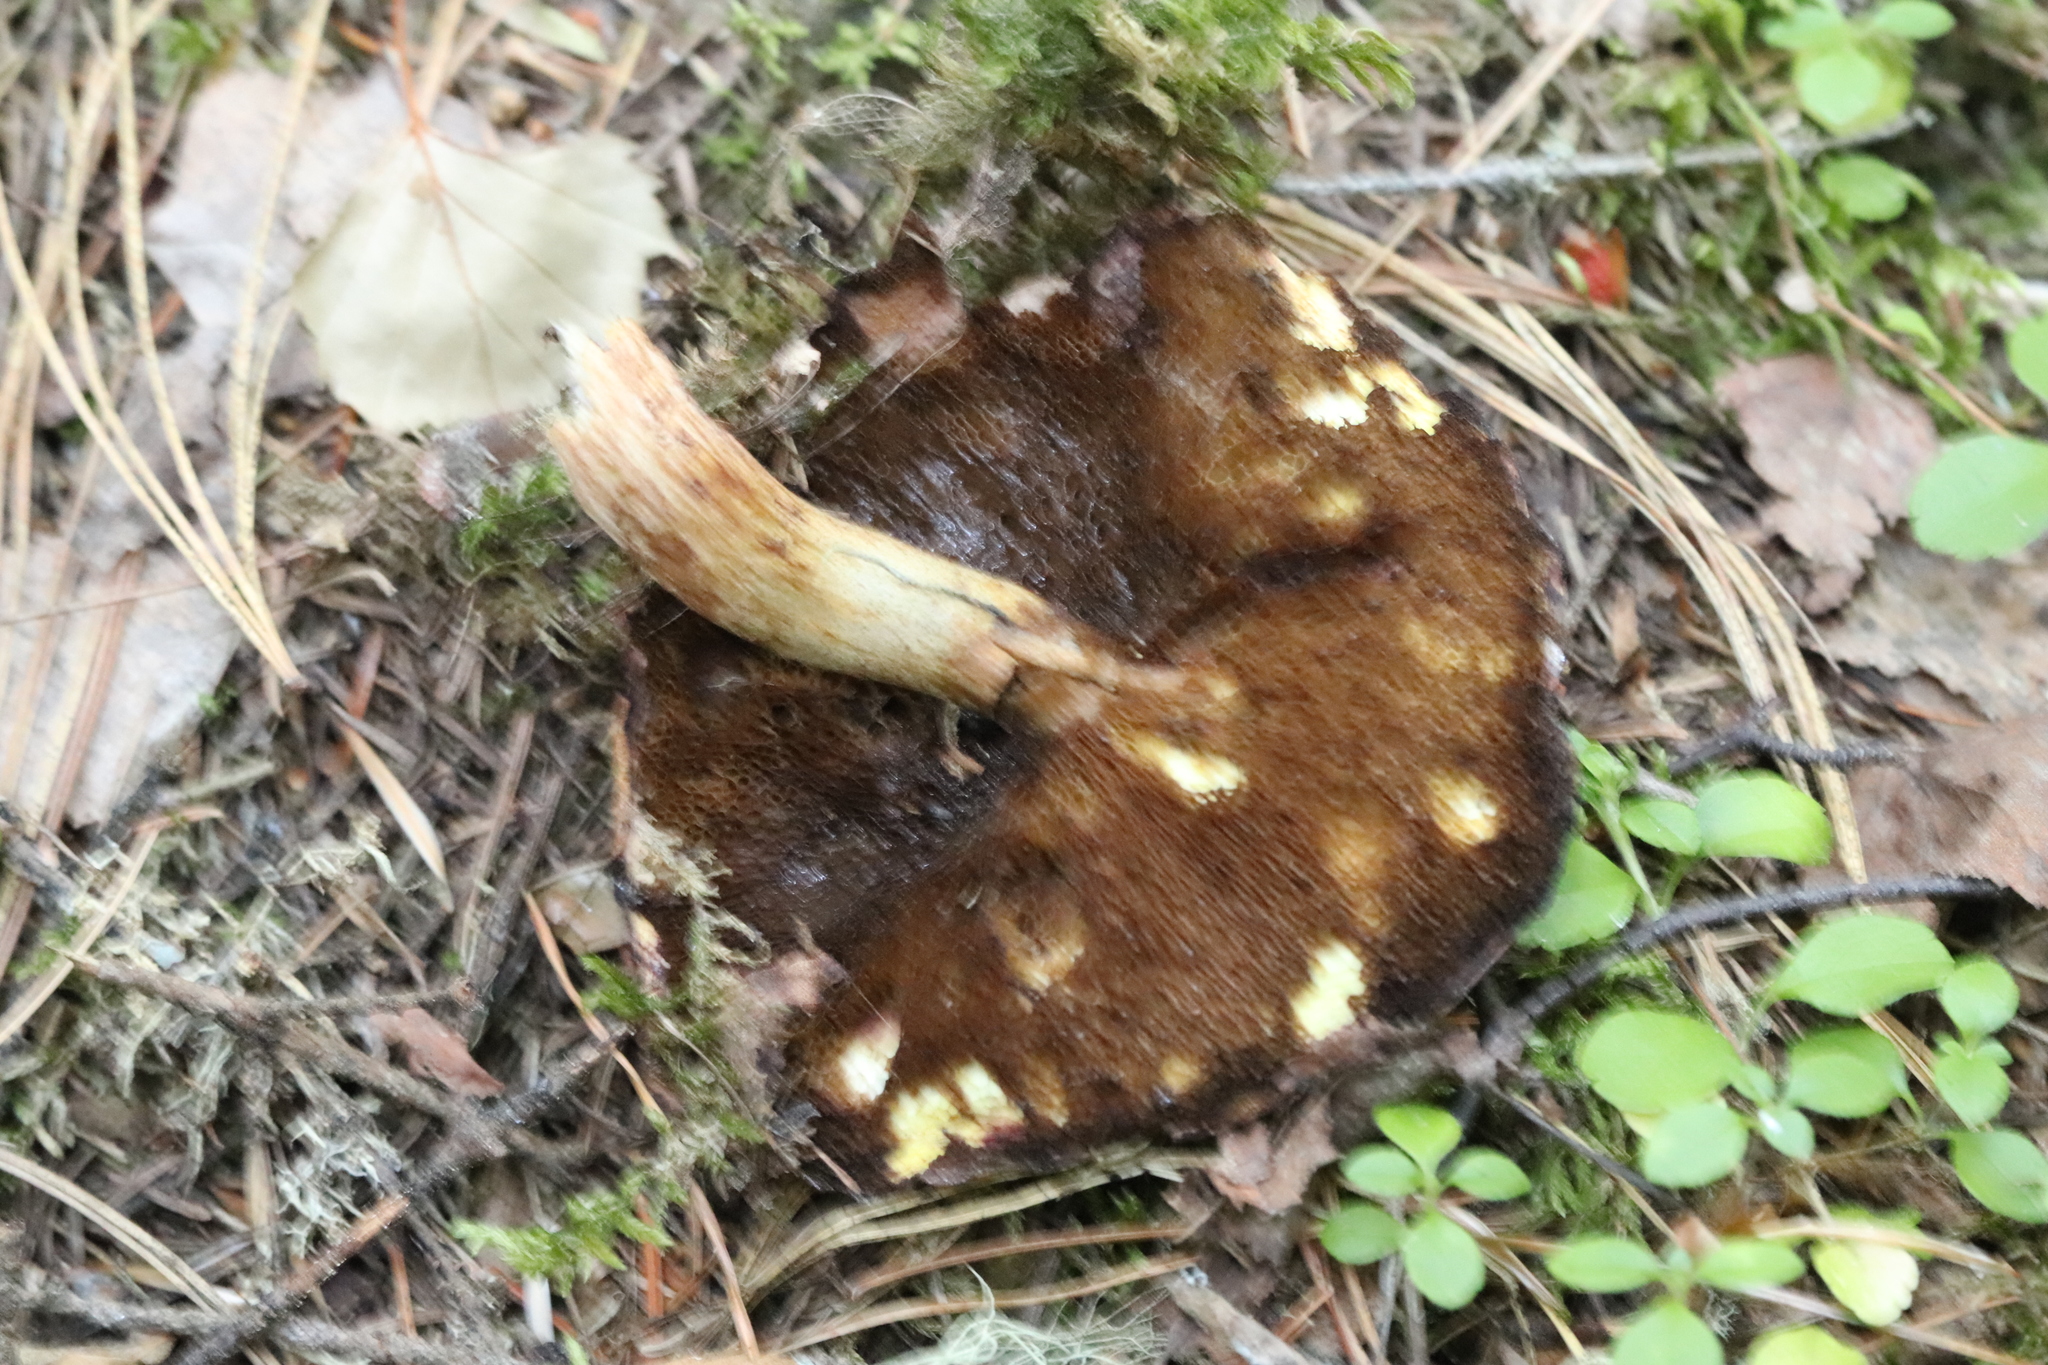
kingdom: Fungi
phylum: Basidiomycota
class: Agaricomycetes
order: Boletales
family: Suillaceae
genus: Suillus
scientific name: Suillus placidus
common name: Slippery white bolete
